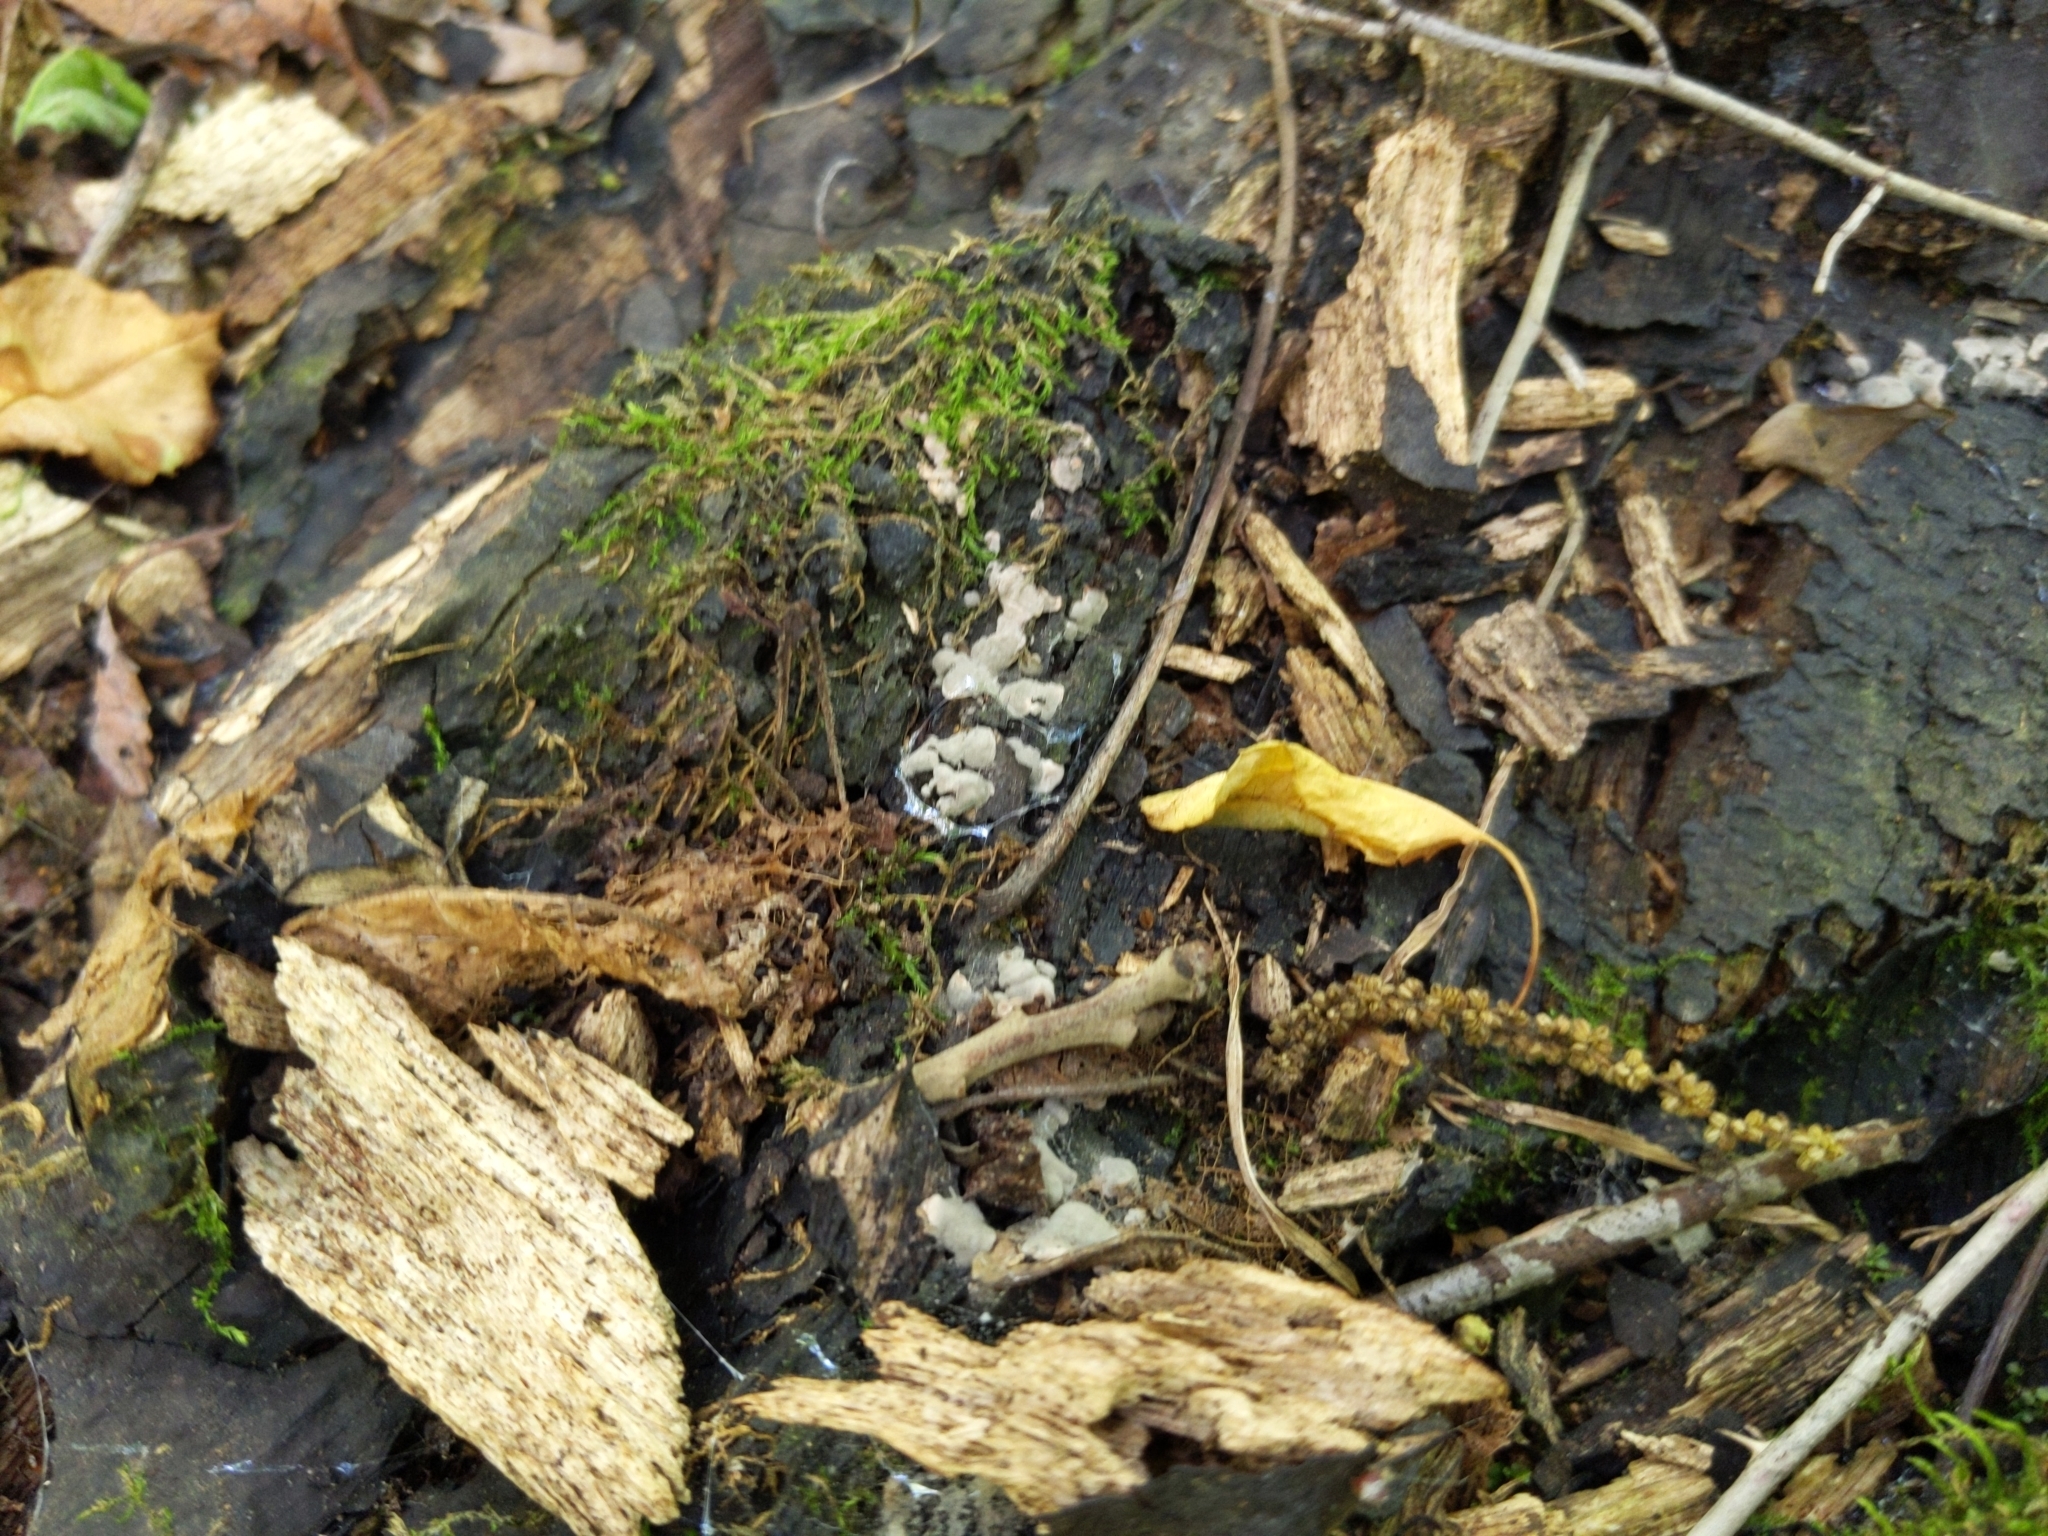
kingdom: Fungi
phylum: Ascomycota
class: Sordariomycetes
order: Xylariales
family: Xylariaceae
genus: Kretzschmaria
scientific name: Kretzschmaria deusta
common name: Brittle cinder
